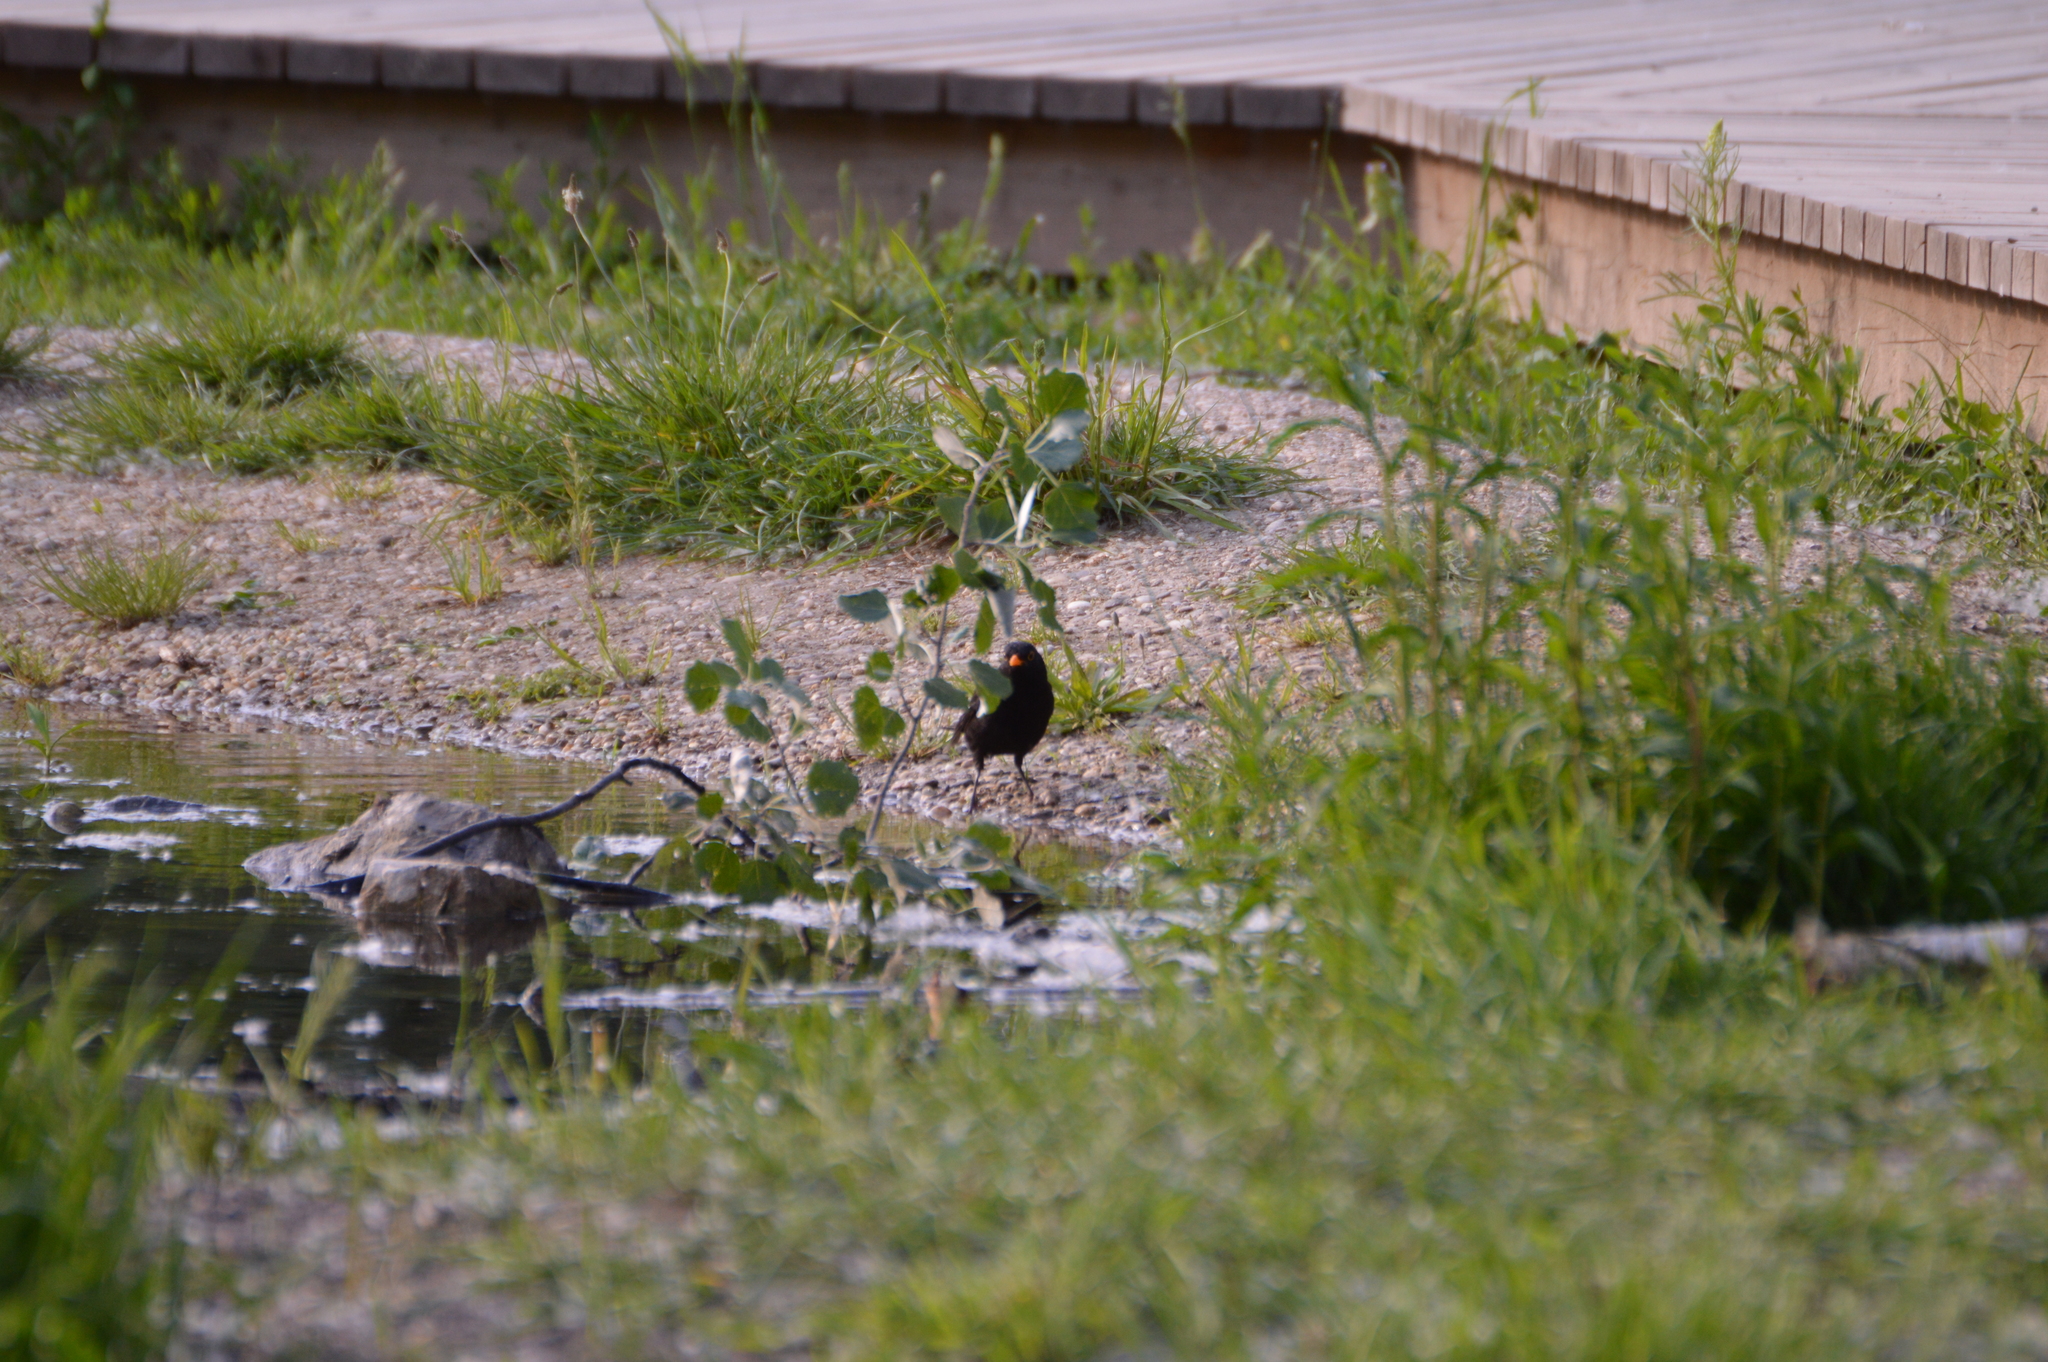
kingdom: Animalia
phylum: Chordata
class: Aves
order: Passeriformes
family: Turdidae
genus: Turdus
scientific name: Turdus merula
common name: Common blackbird
